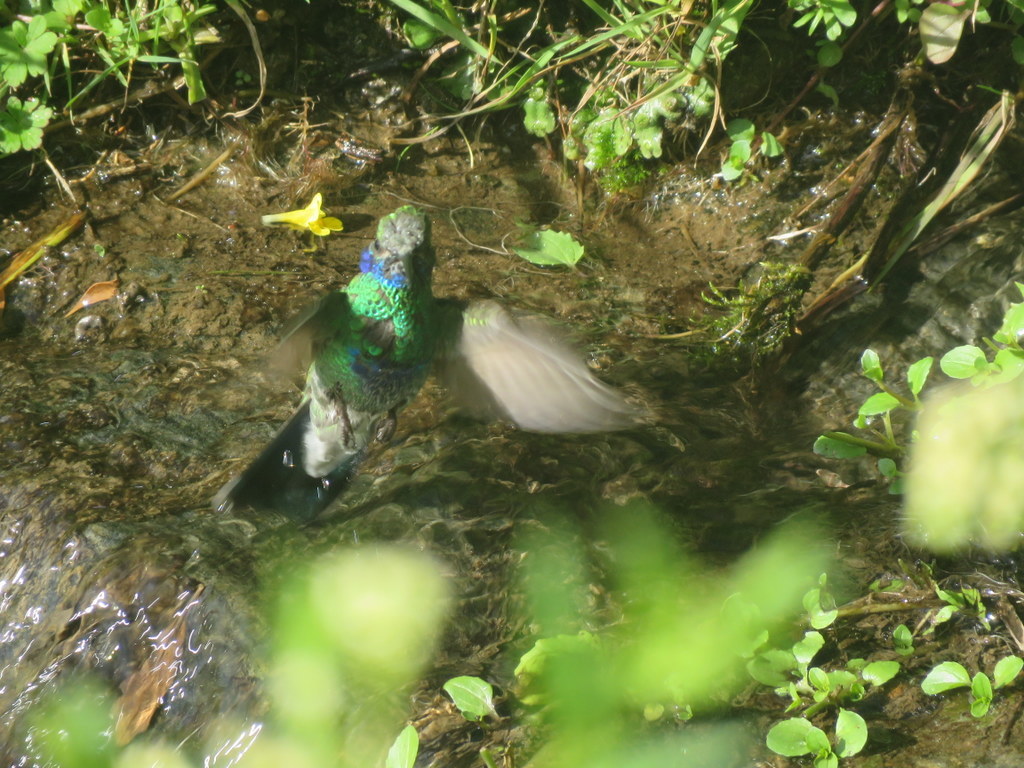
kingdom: Animalia
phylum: Chordata
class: Aves
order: Apodiformes
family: Trochilidae
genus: Colibri
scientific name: Colibri coruscans
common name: Sparkling violetear
